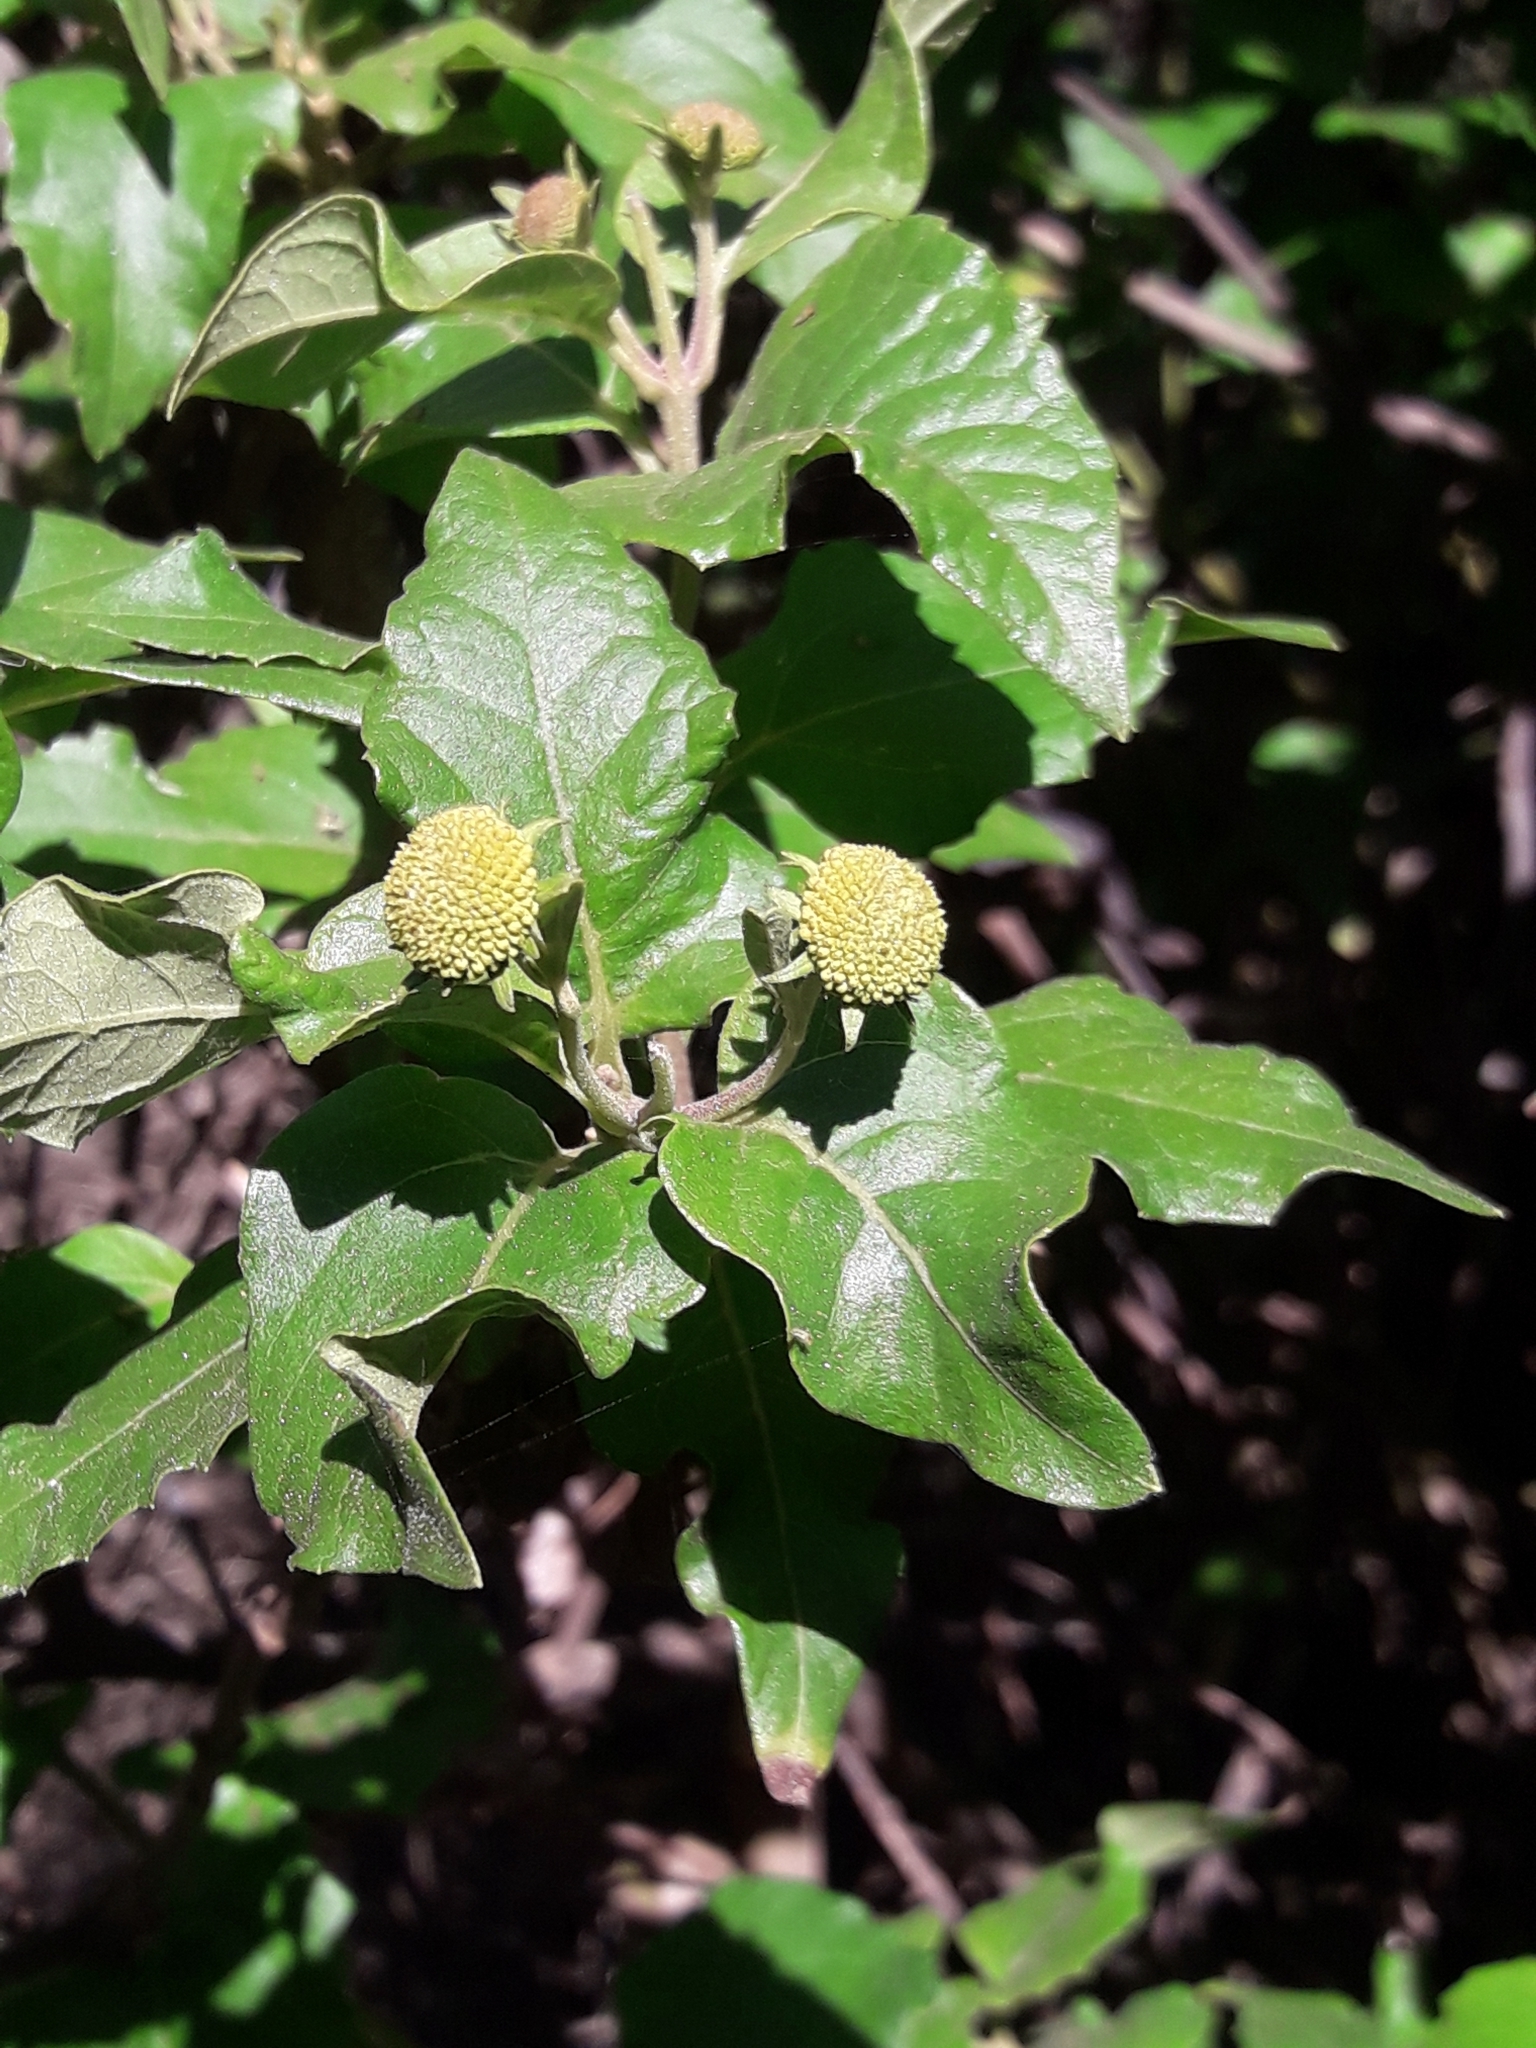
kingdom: Plantae
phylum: Tracheophyta
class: Magnoliopsida
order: Asterales
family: Asteraceae
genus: Podanthus
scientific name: Podanthus ovatifolius
